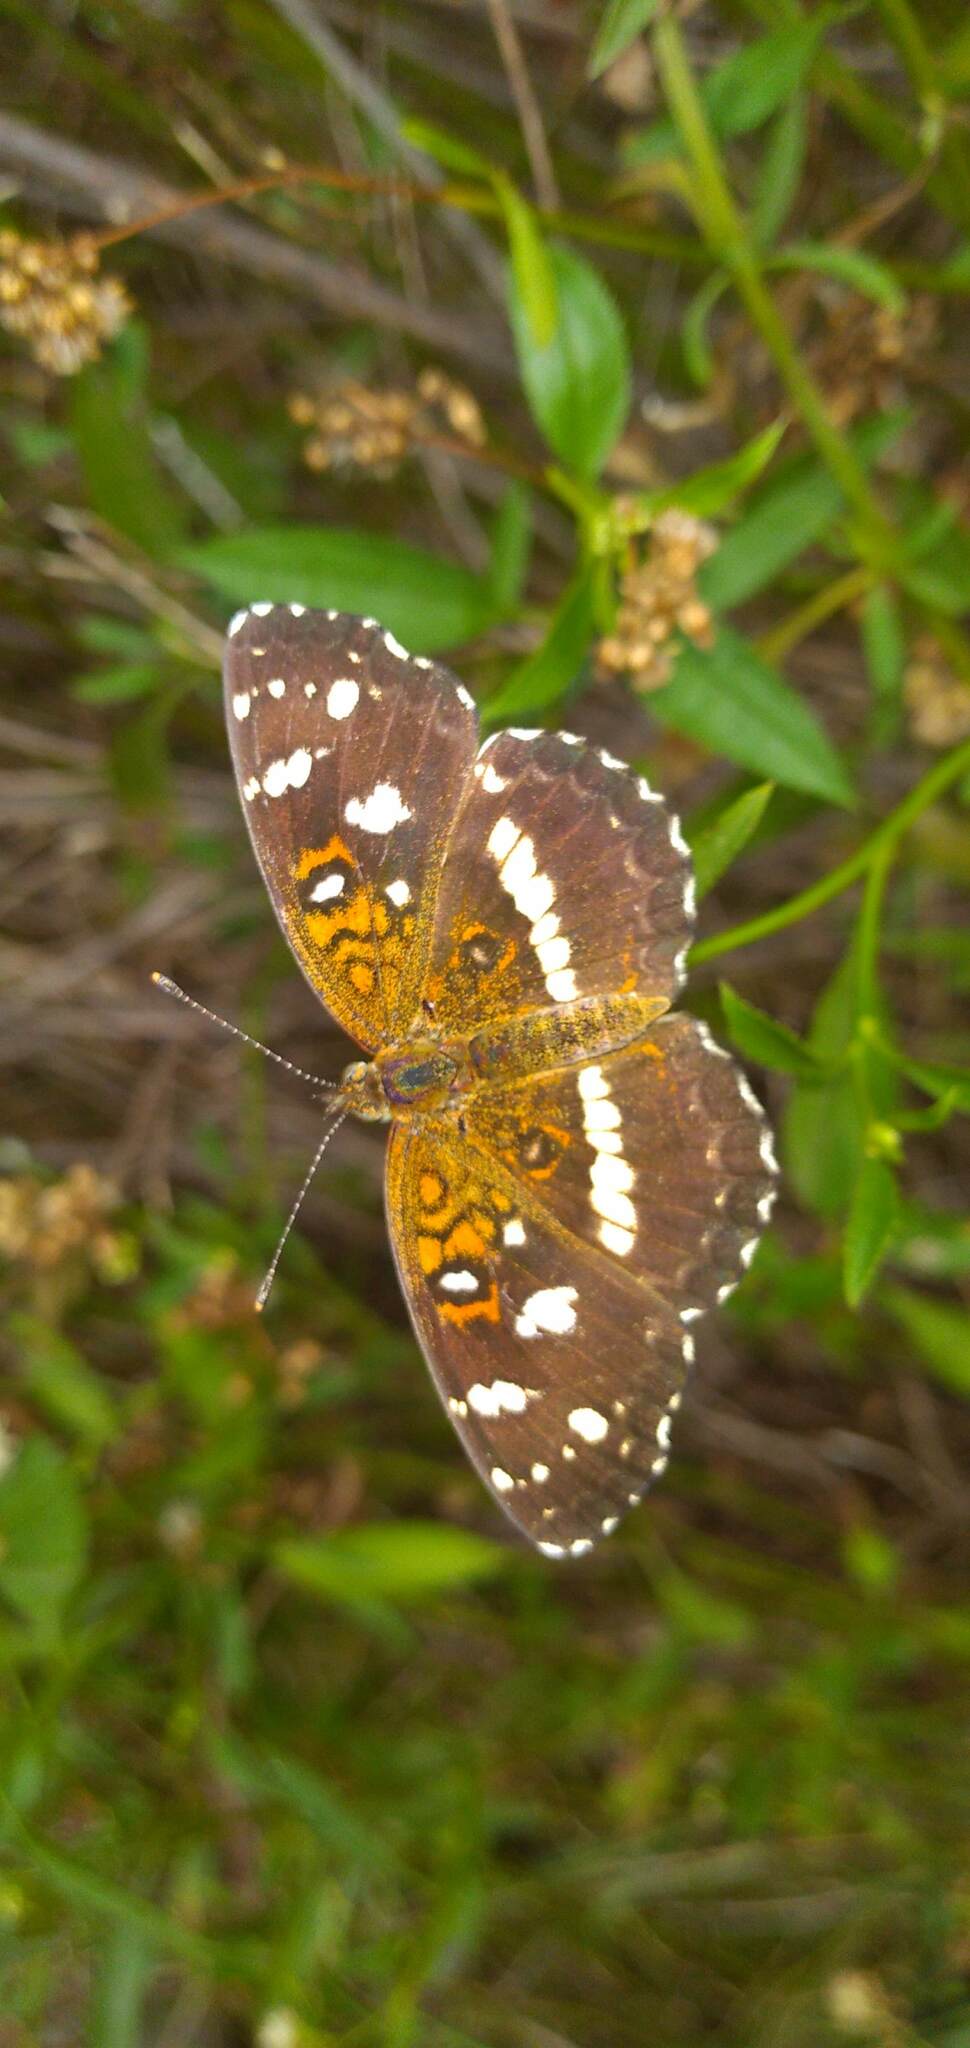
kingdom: Animalia
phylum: Arthropoda
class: Insecta
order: Lepidoptera
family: Nymphalidae
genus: Ortilia
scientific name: Ortilia ithra
